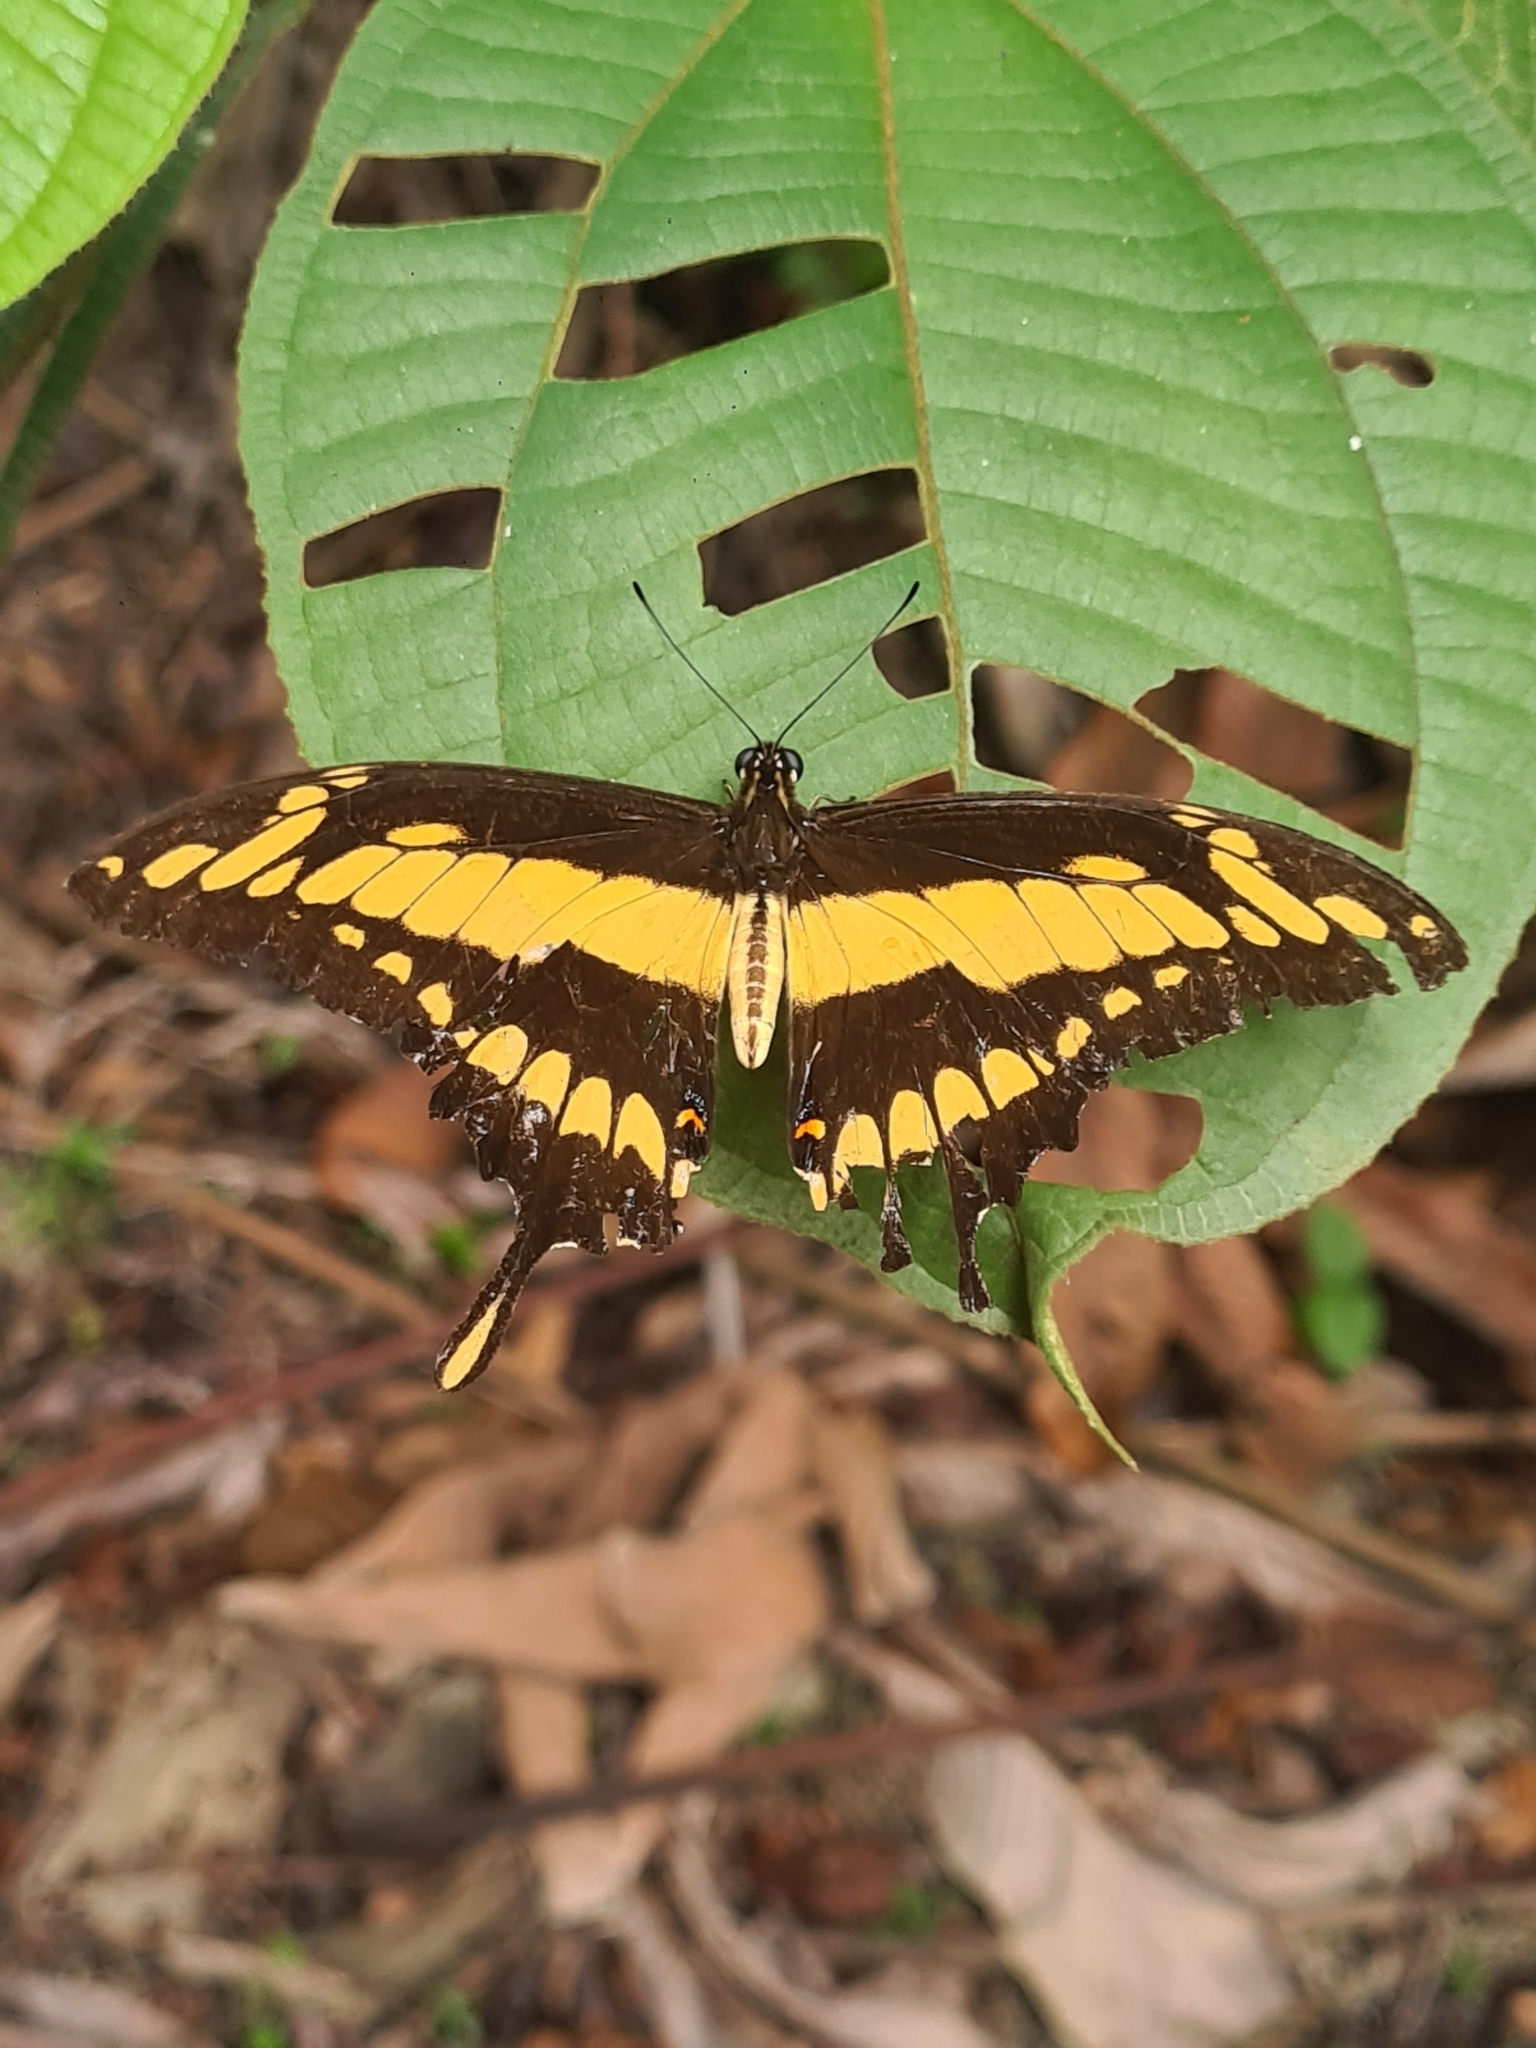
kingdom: Animalia
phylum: Arthropoda
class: Insecta
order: Lepidoptera
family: Papilionidae
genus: Papilio
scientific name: Papilio thoas
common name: King swallowtail
